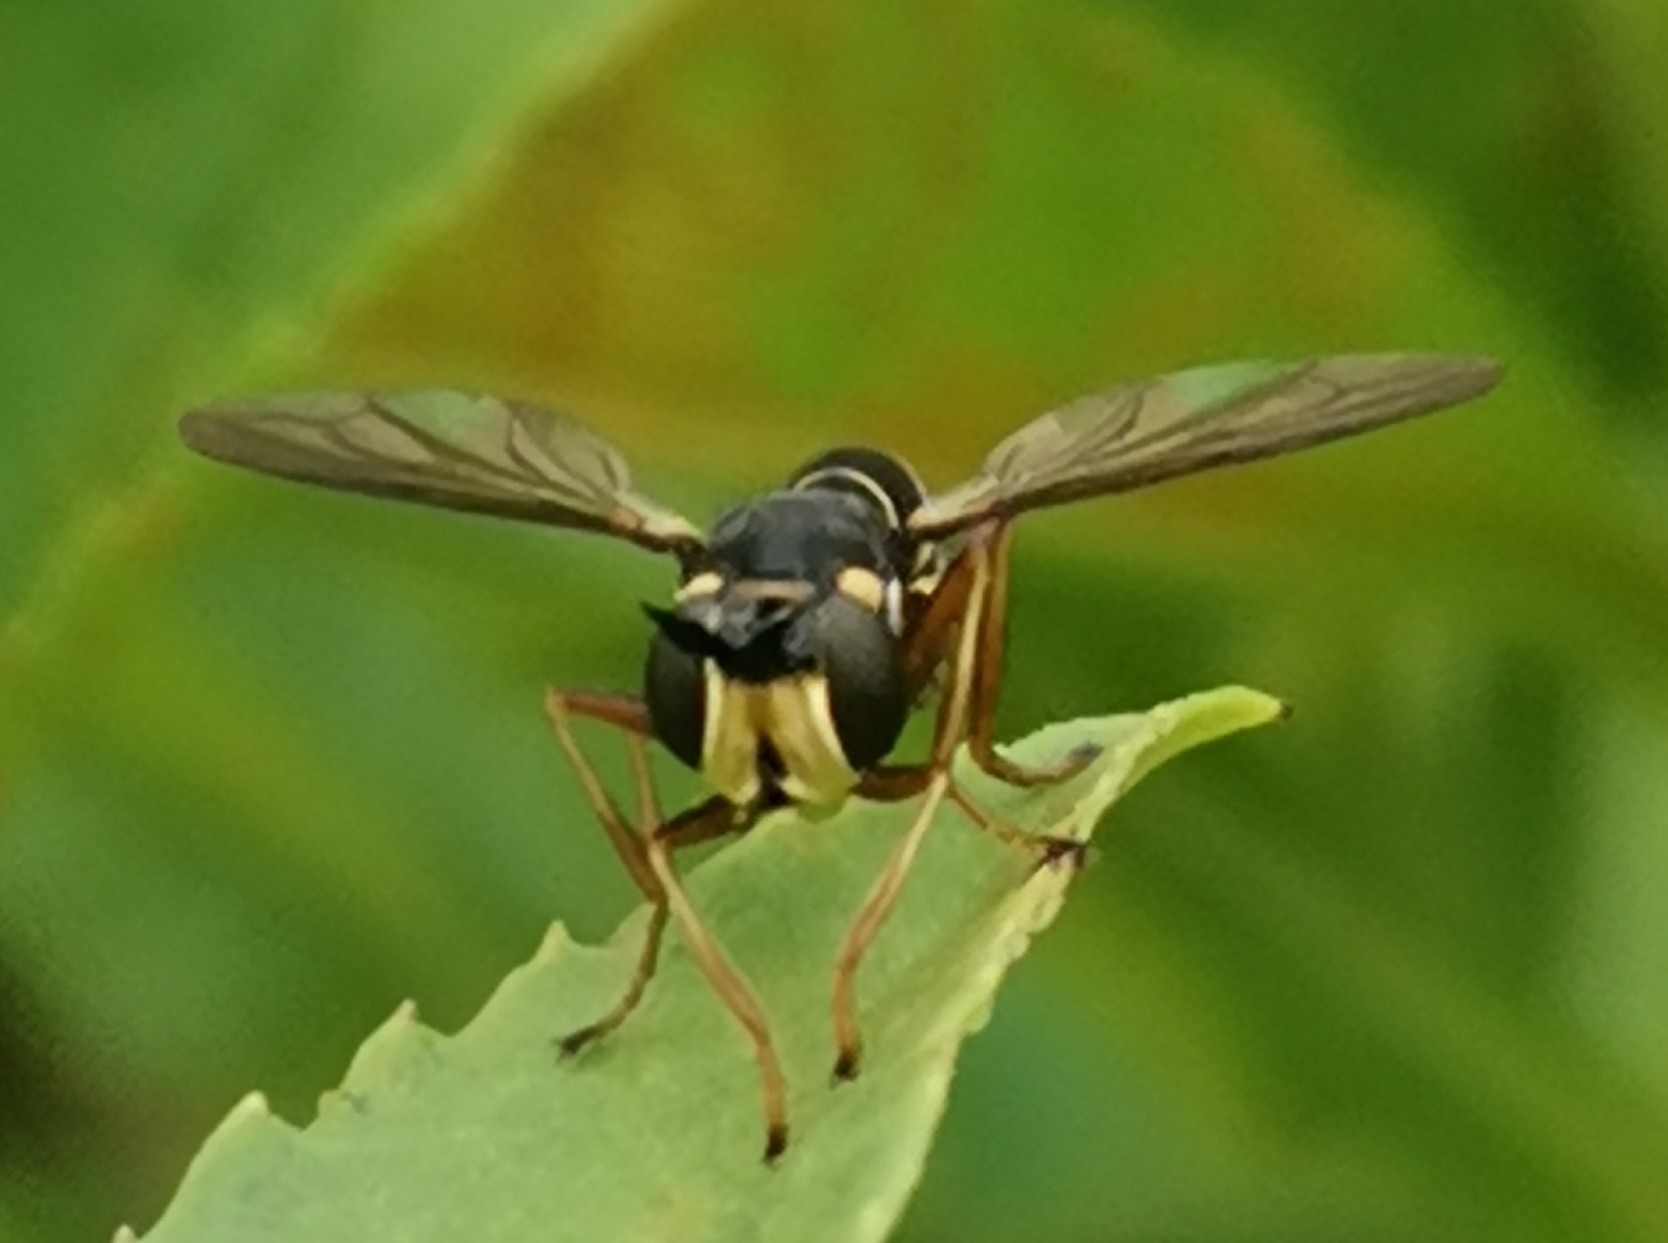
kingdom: Animalia
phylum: Arthropoda
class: Insecta
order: Diptera
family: Conopidae
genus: Conops
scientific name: Conops quadrifasciatus
